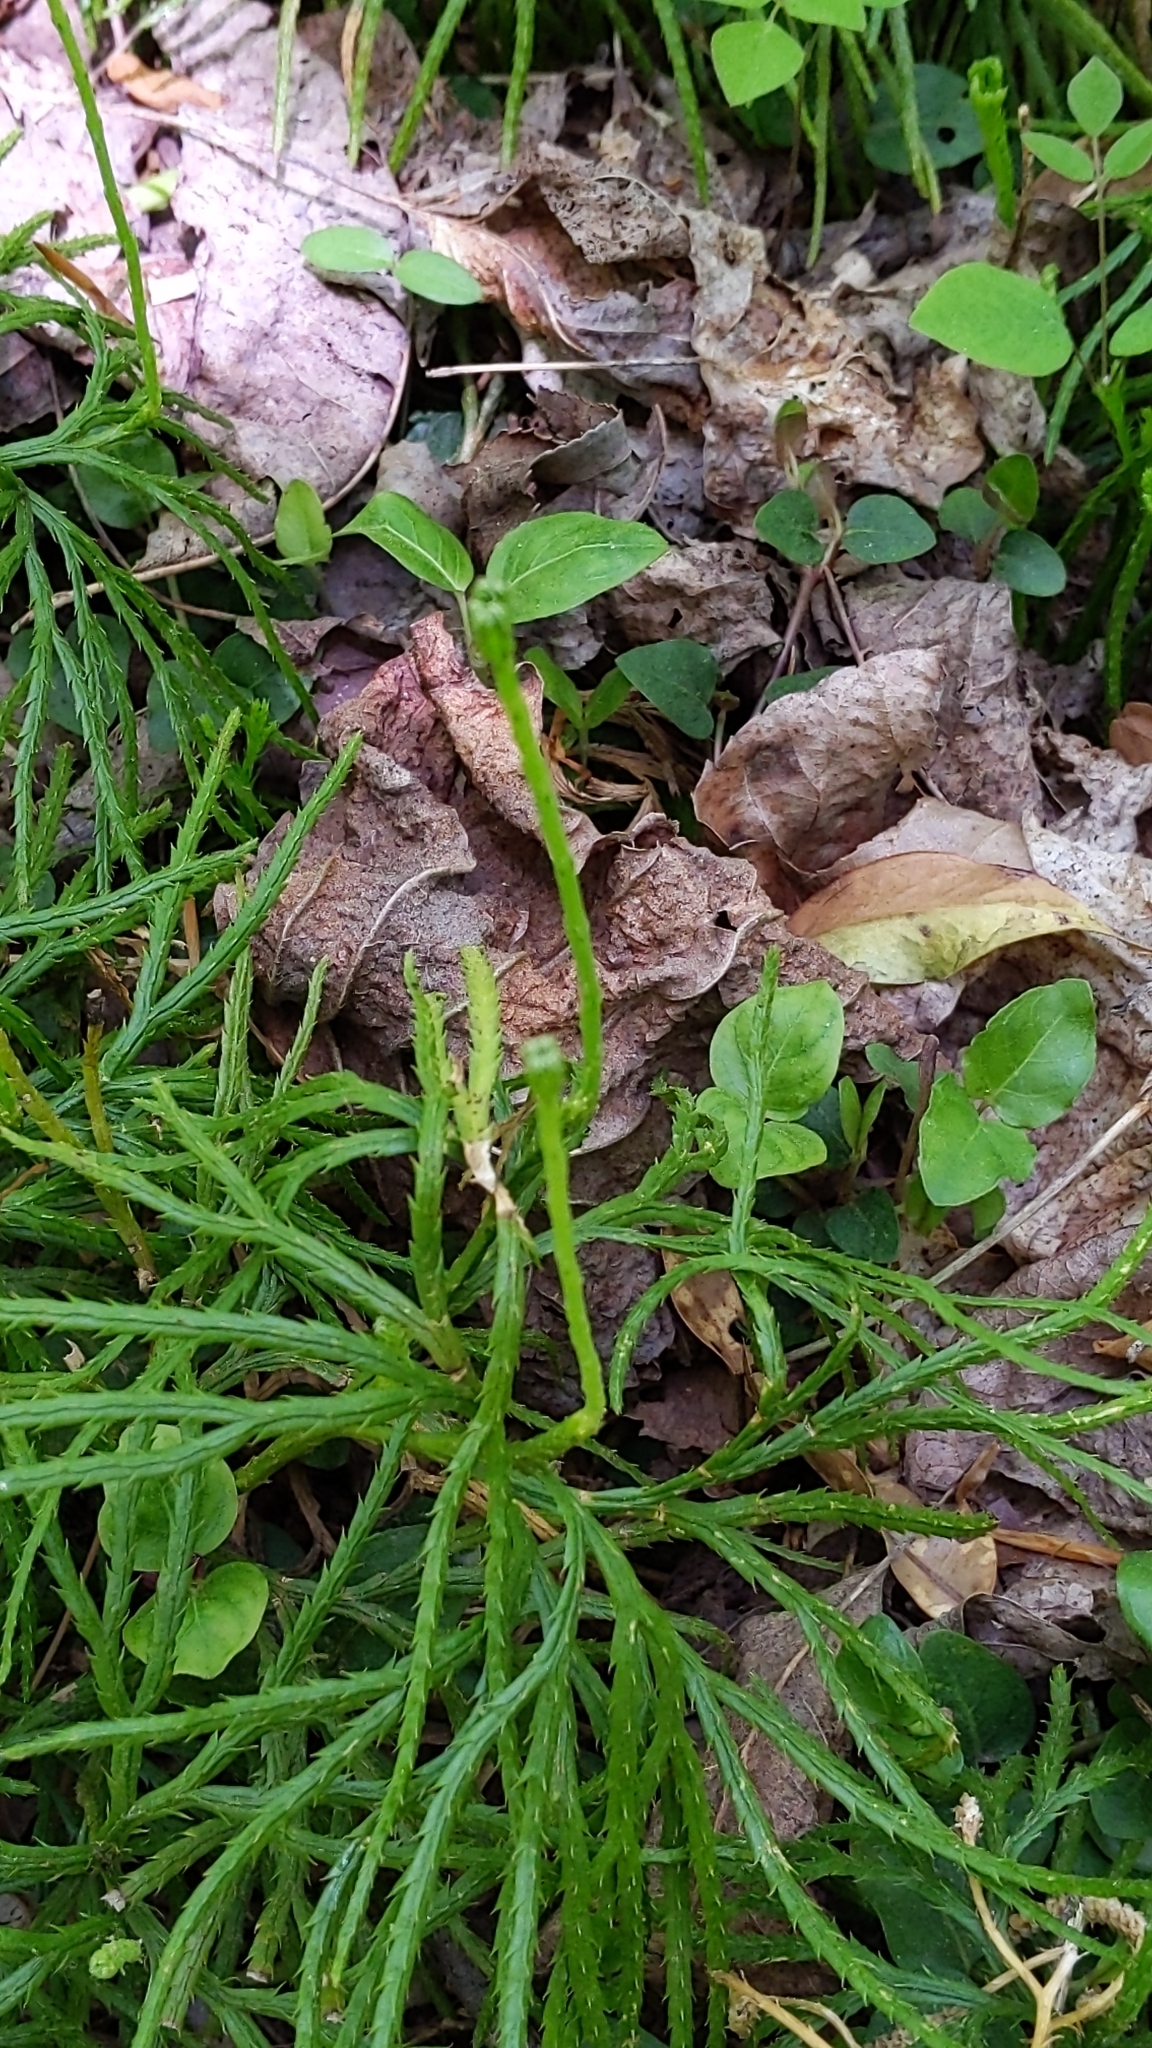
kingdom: Plantae
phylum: Tracheophyta
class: Lycopodiopsida
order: Lycopodiales
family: Lycopodiaceae
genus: Diphasiastrum
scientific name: Diphasiastrum digitatum
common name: Southern running-pine
